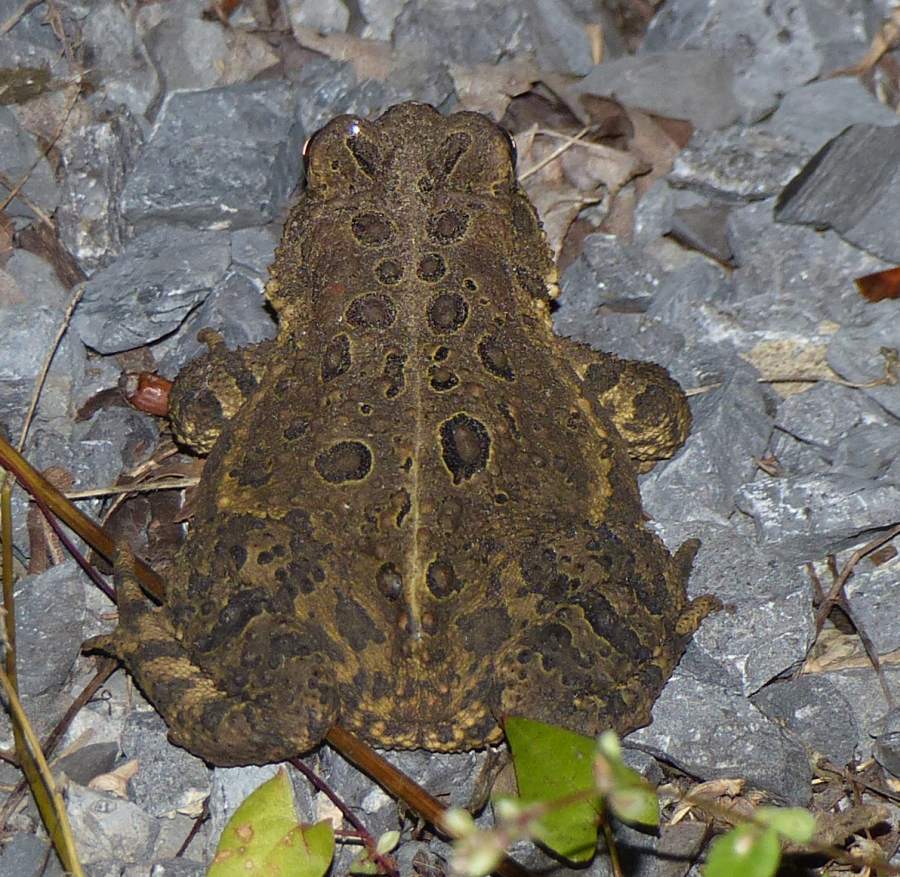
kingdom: Animalia
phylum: Chordata
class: Amphibia
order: Anura
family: Bufonidae
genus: Anaxyrus
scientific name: Anaxyrus americanus
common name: American toad
